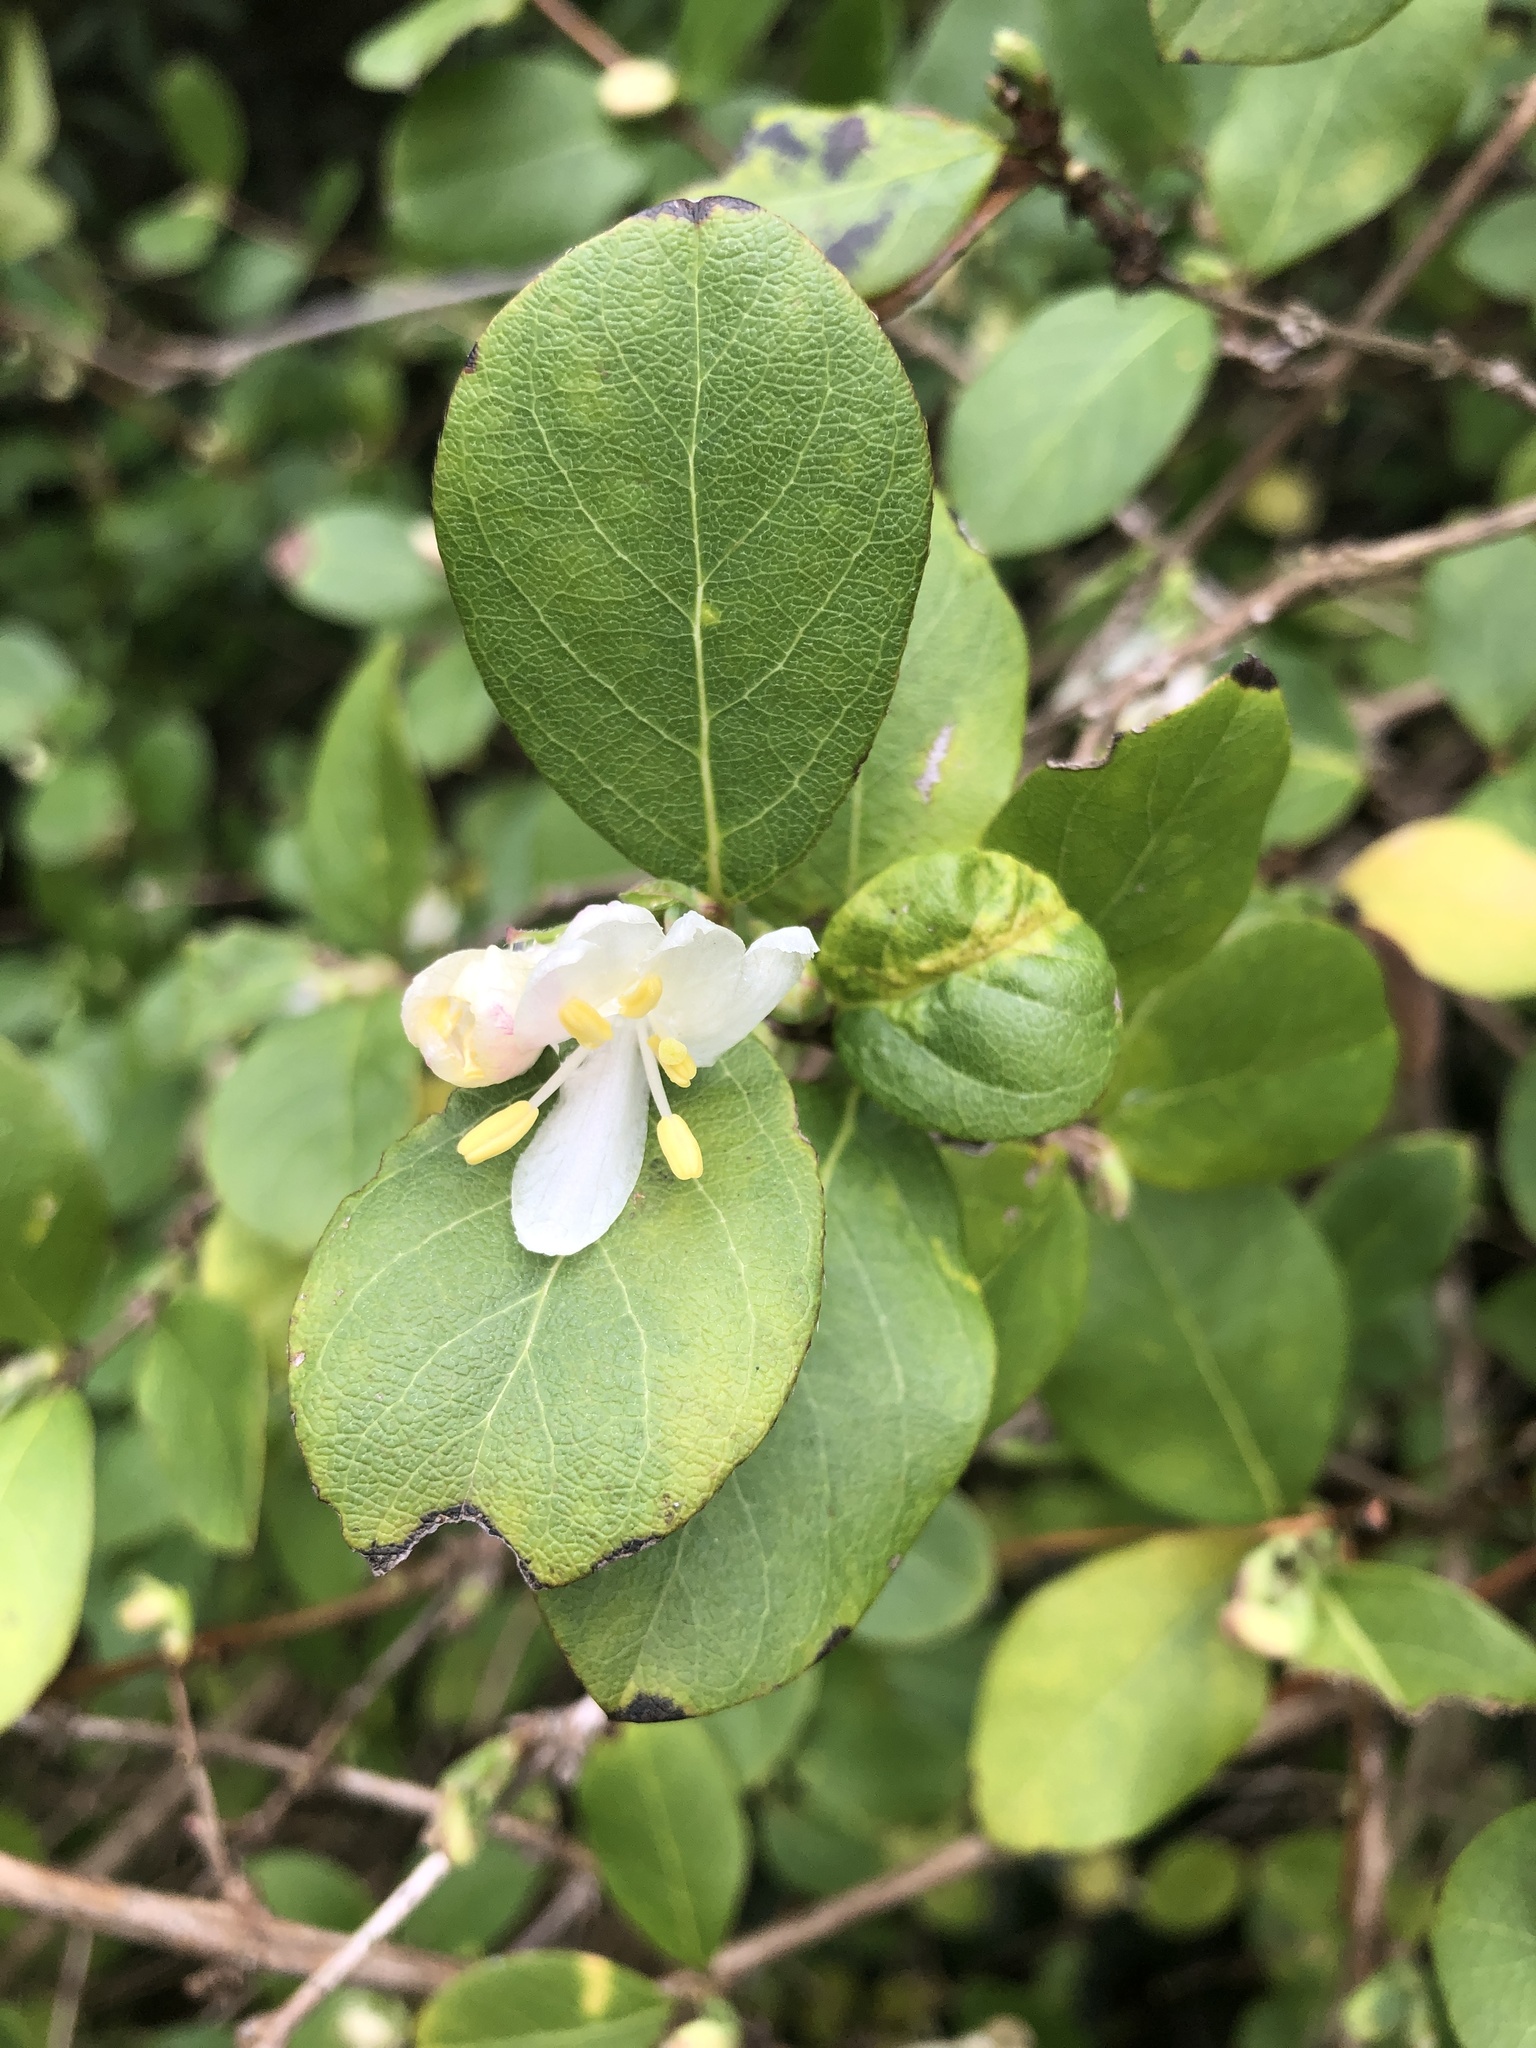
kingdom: Plantae
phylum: Tracheophyta
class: Magnoliopsida
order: Dipsacales
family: Caprifoliaceae
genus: Lonicera
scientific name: Lonicera fragrantissima
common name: Fragrant honeysuckle
